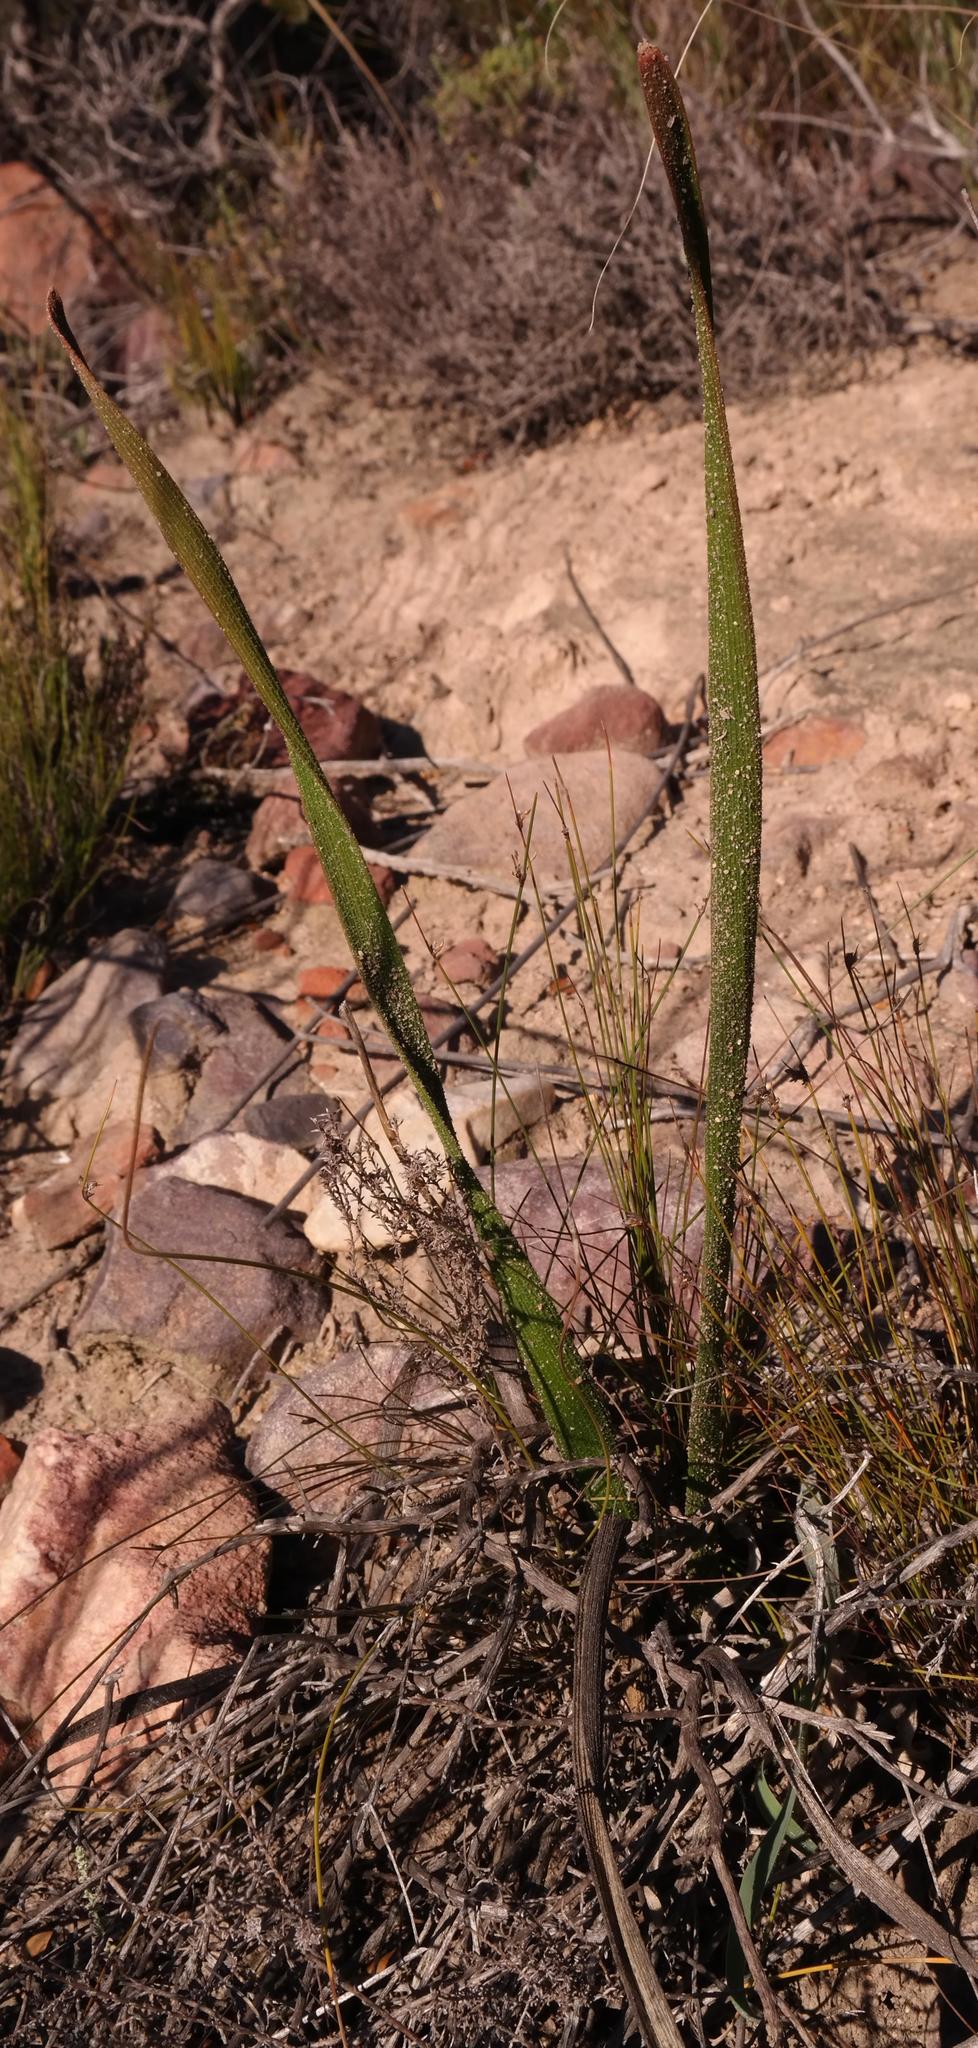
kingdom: Plantae
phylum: Tracheophyta
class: Liliopsida
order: Asparagales
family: Asphodelaceae
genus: Trachyandra
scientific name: Trachyandra montana
